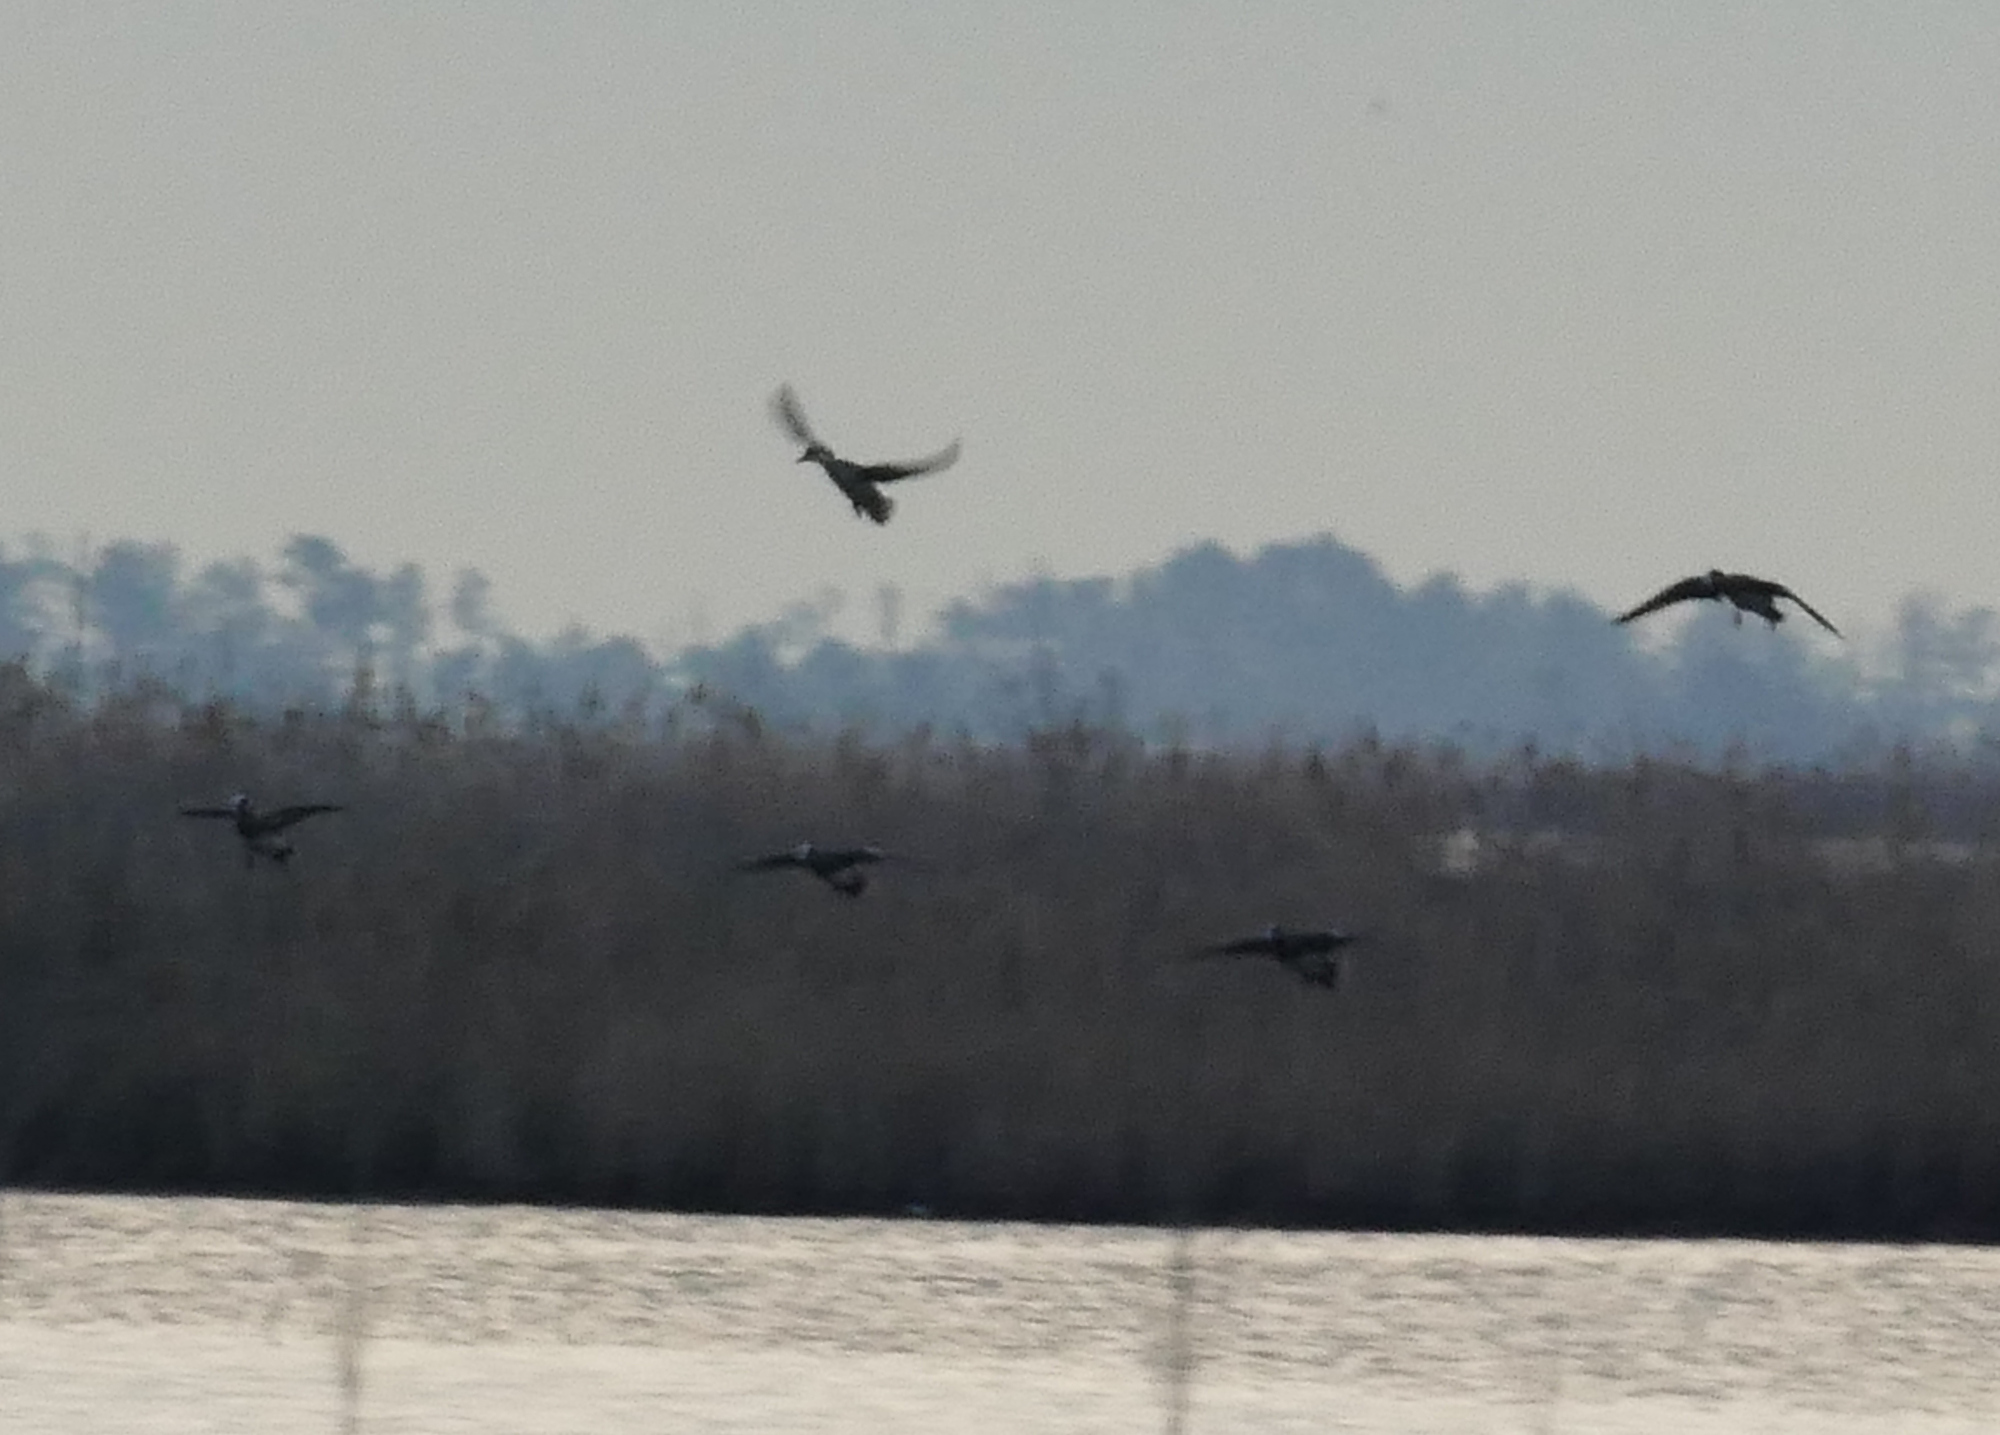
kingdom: Animalia
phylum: Chordata
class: Aves
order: Anseriformes
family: Anatidae
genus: Mareca
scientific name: Mareca americana
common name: American wigeon
